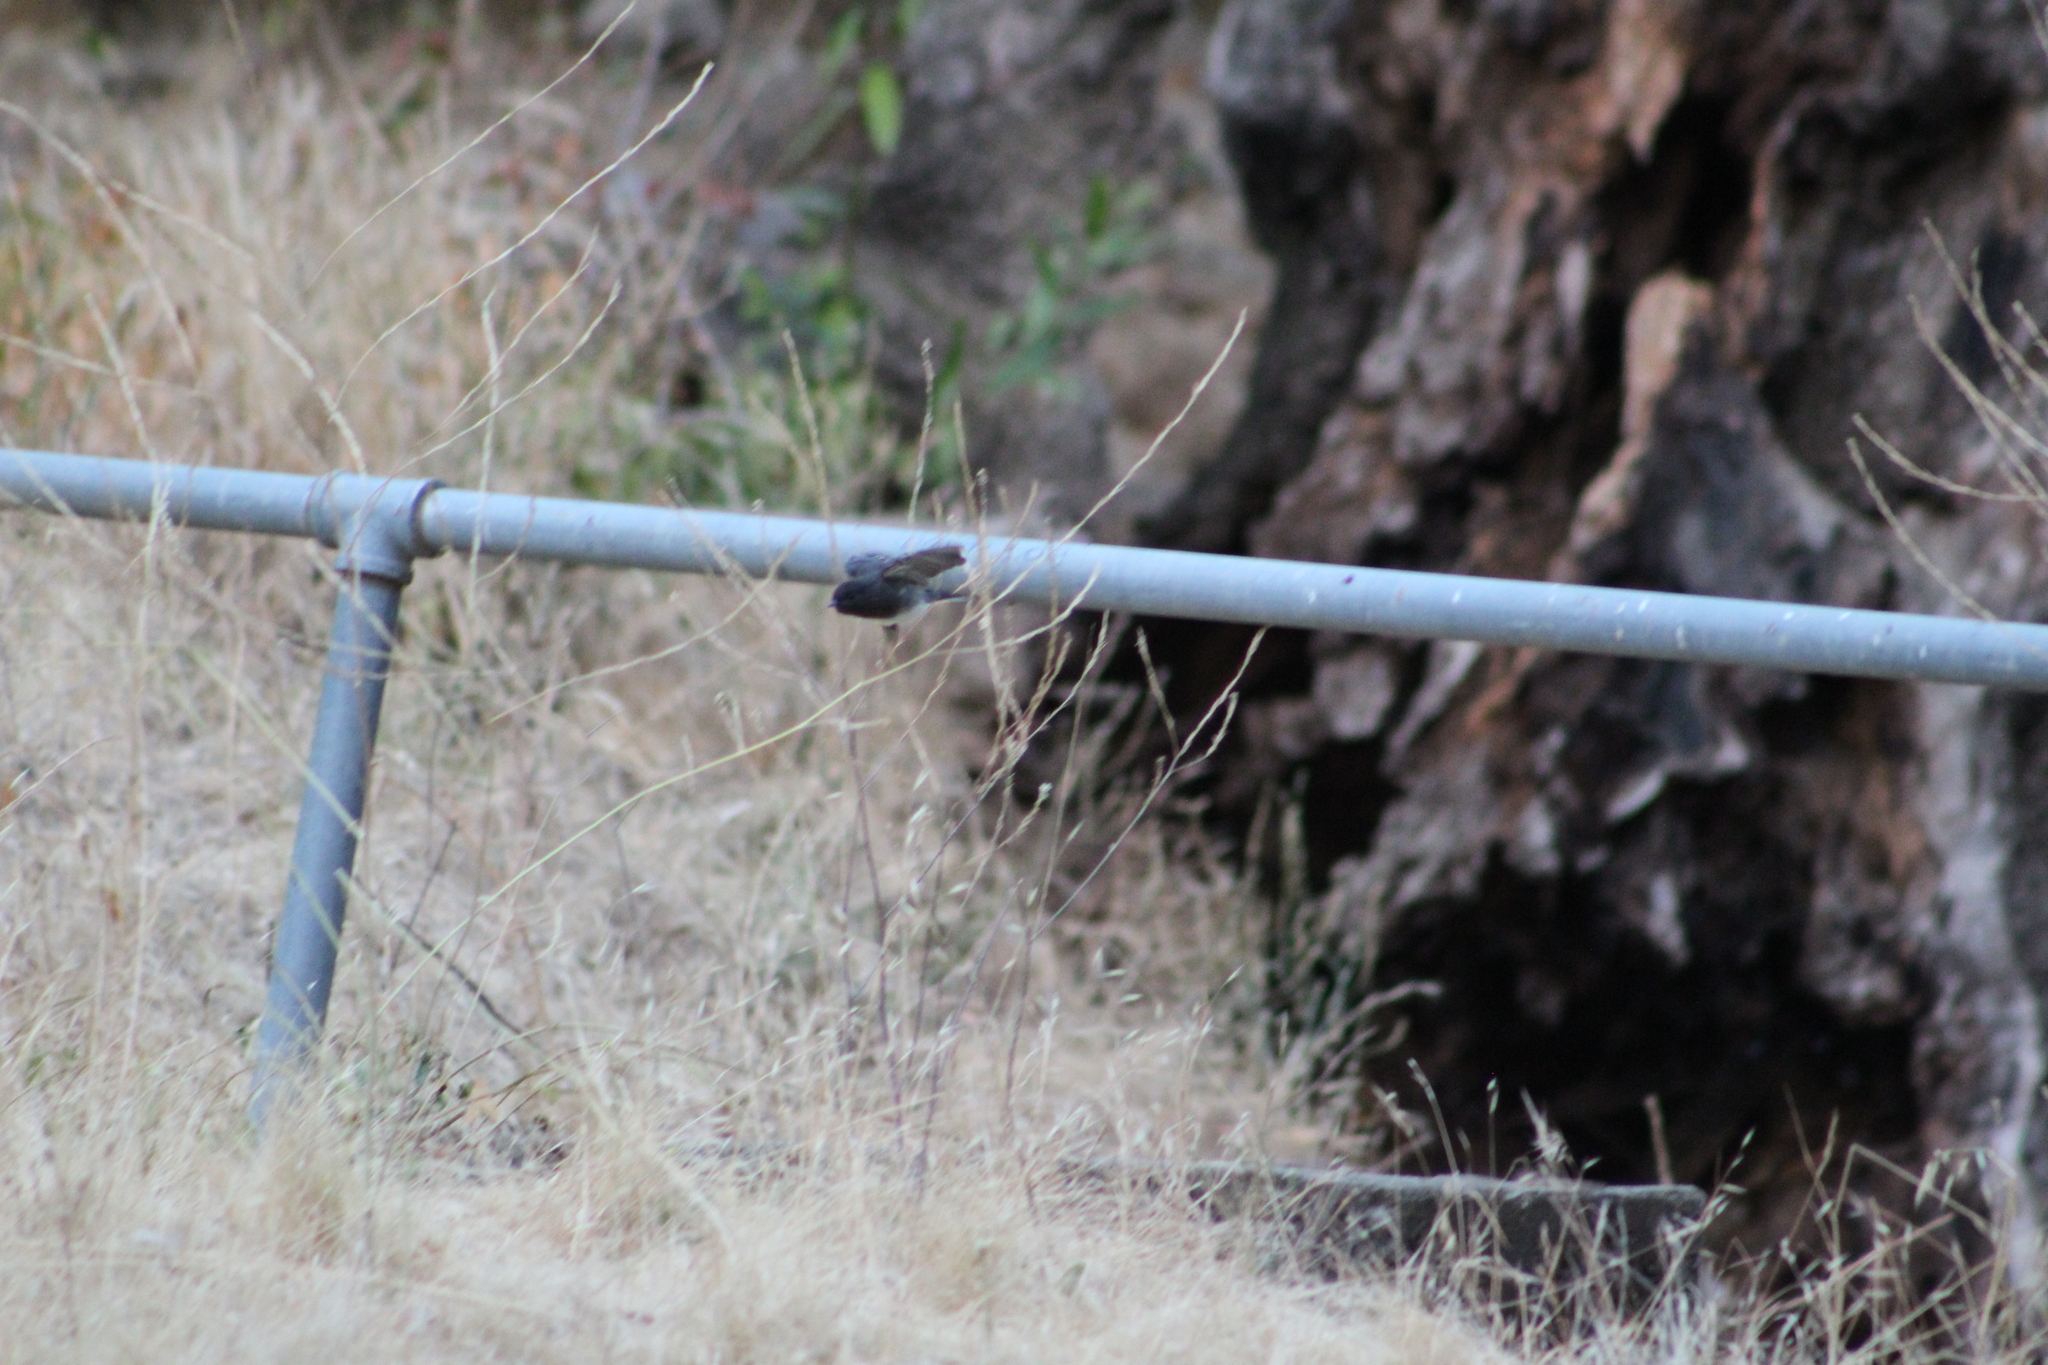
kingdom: Animalia
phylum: Chordata
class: Aves
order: Passeriformes
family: Tyrannidae
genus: Sayornis
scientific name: Sayornis nigricans
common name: Black phoebe
